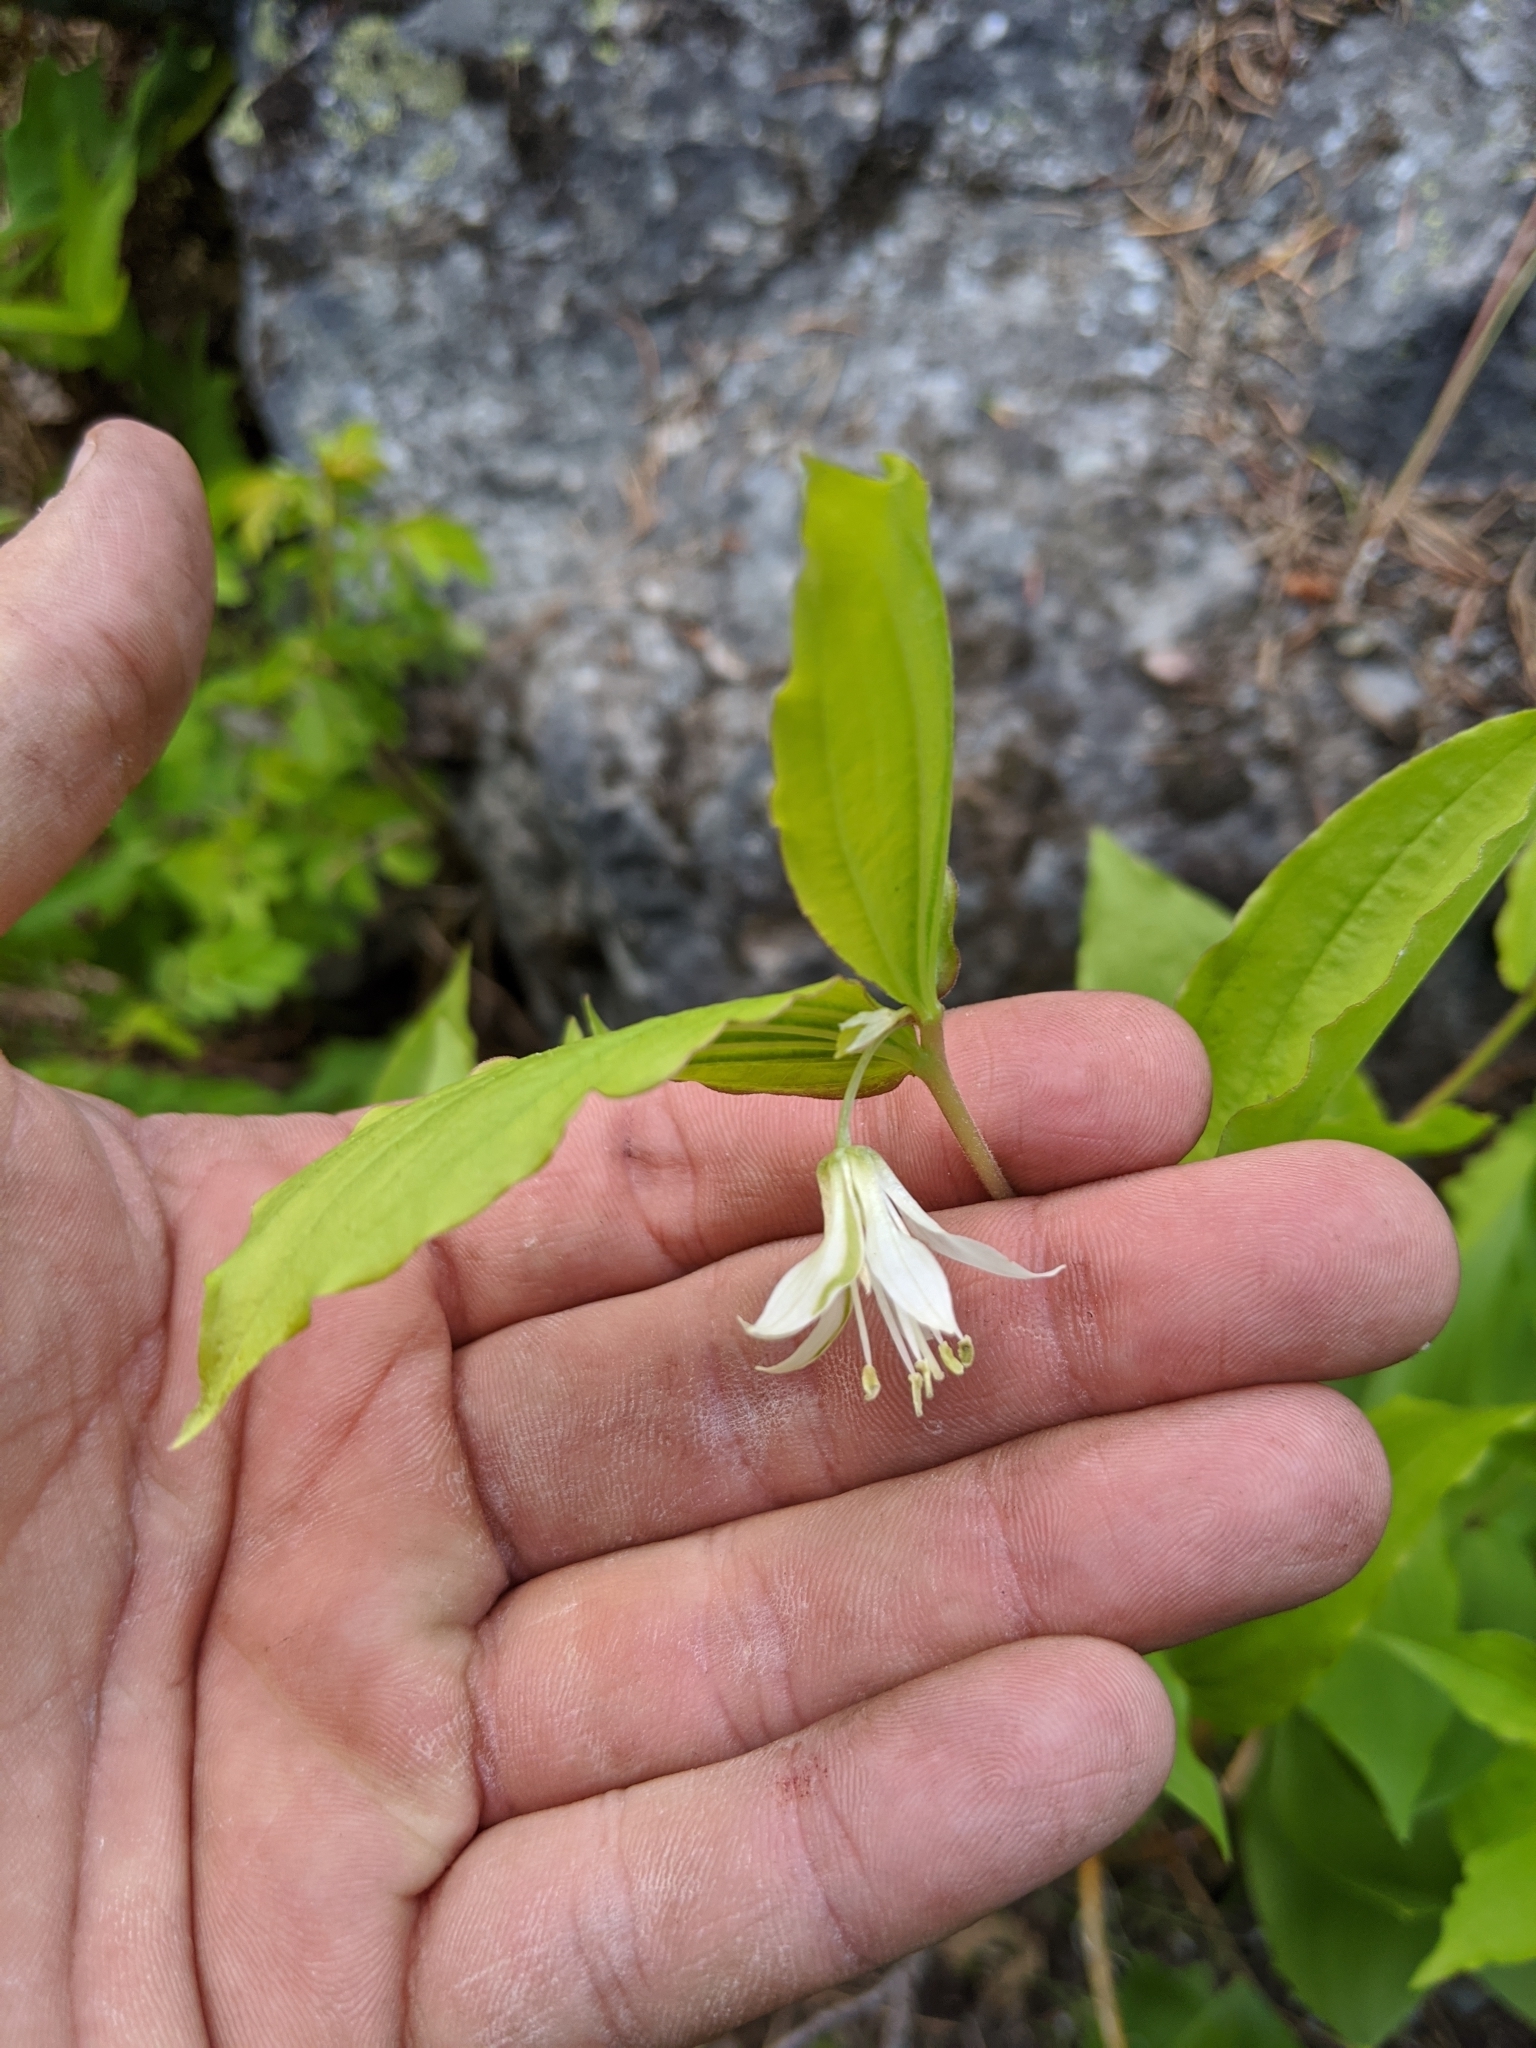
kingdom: Plantae
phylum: Tracheophyta
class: Liliopsida
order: Liliales
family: Liliaceae
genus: Prosartes
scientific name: Prosartes hookeri
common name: Fairy-bells
